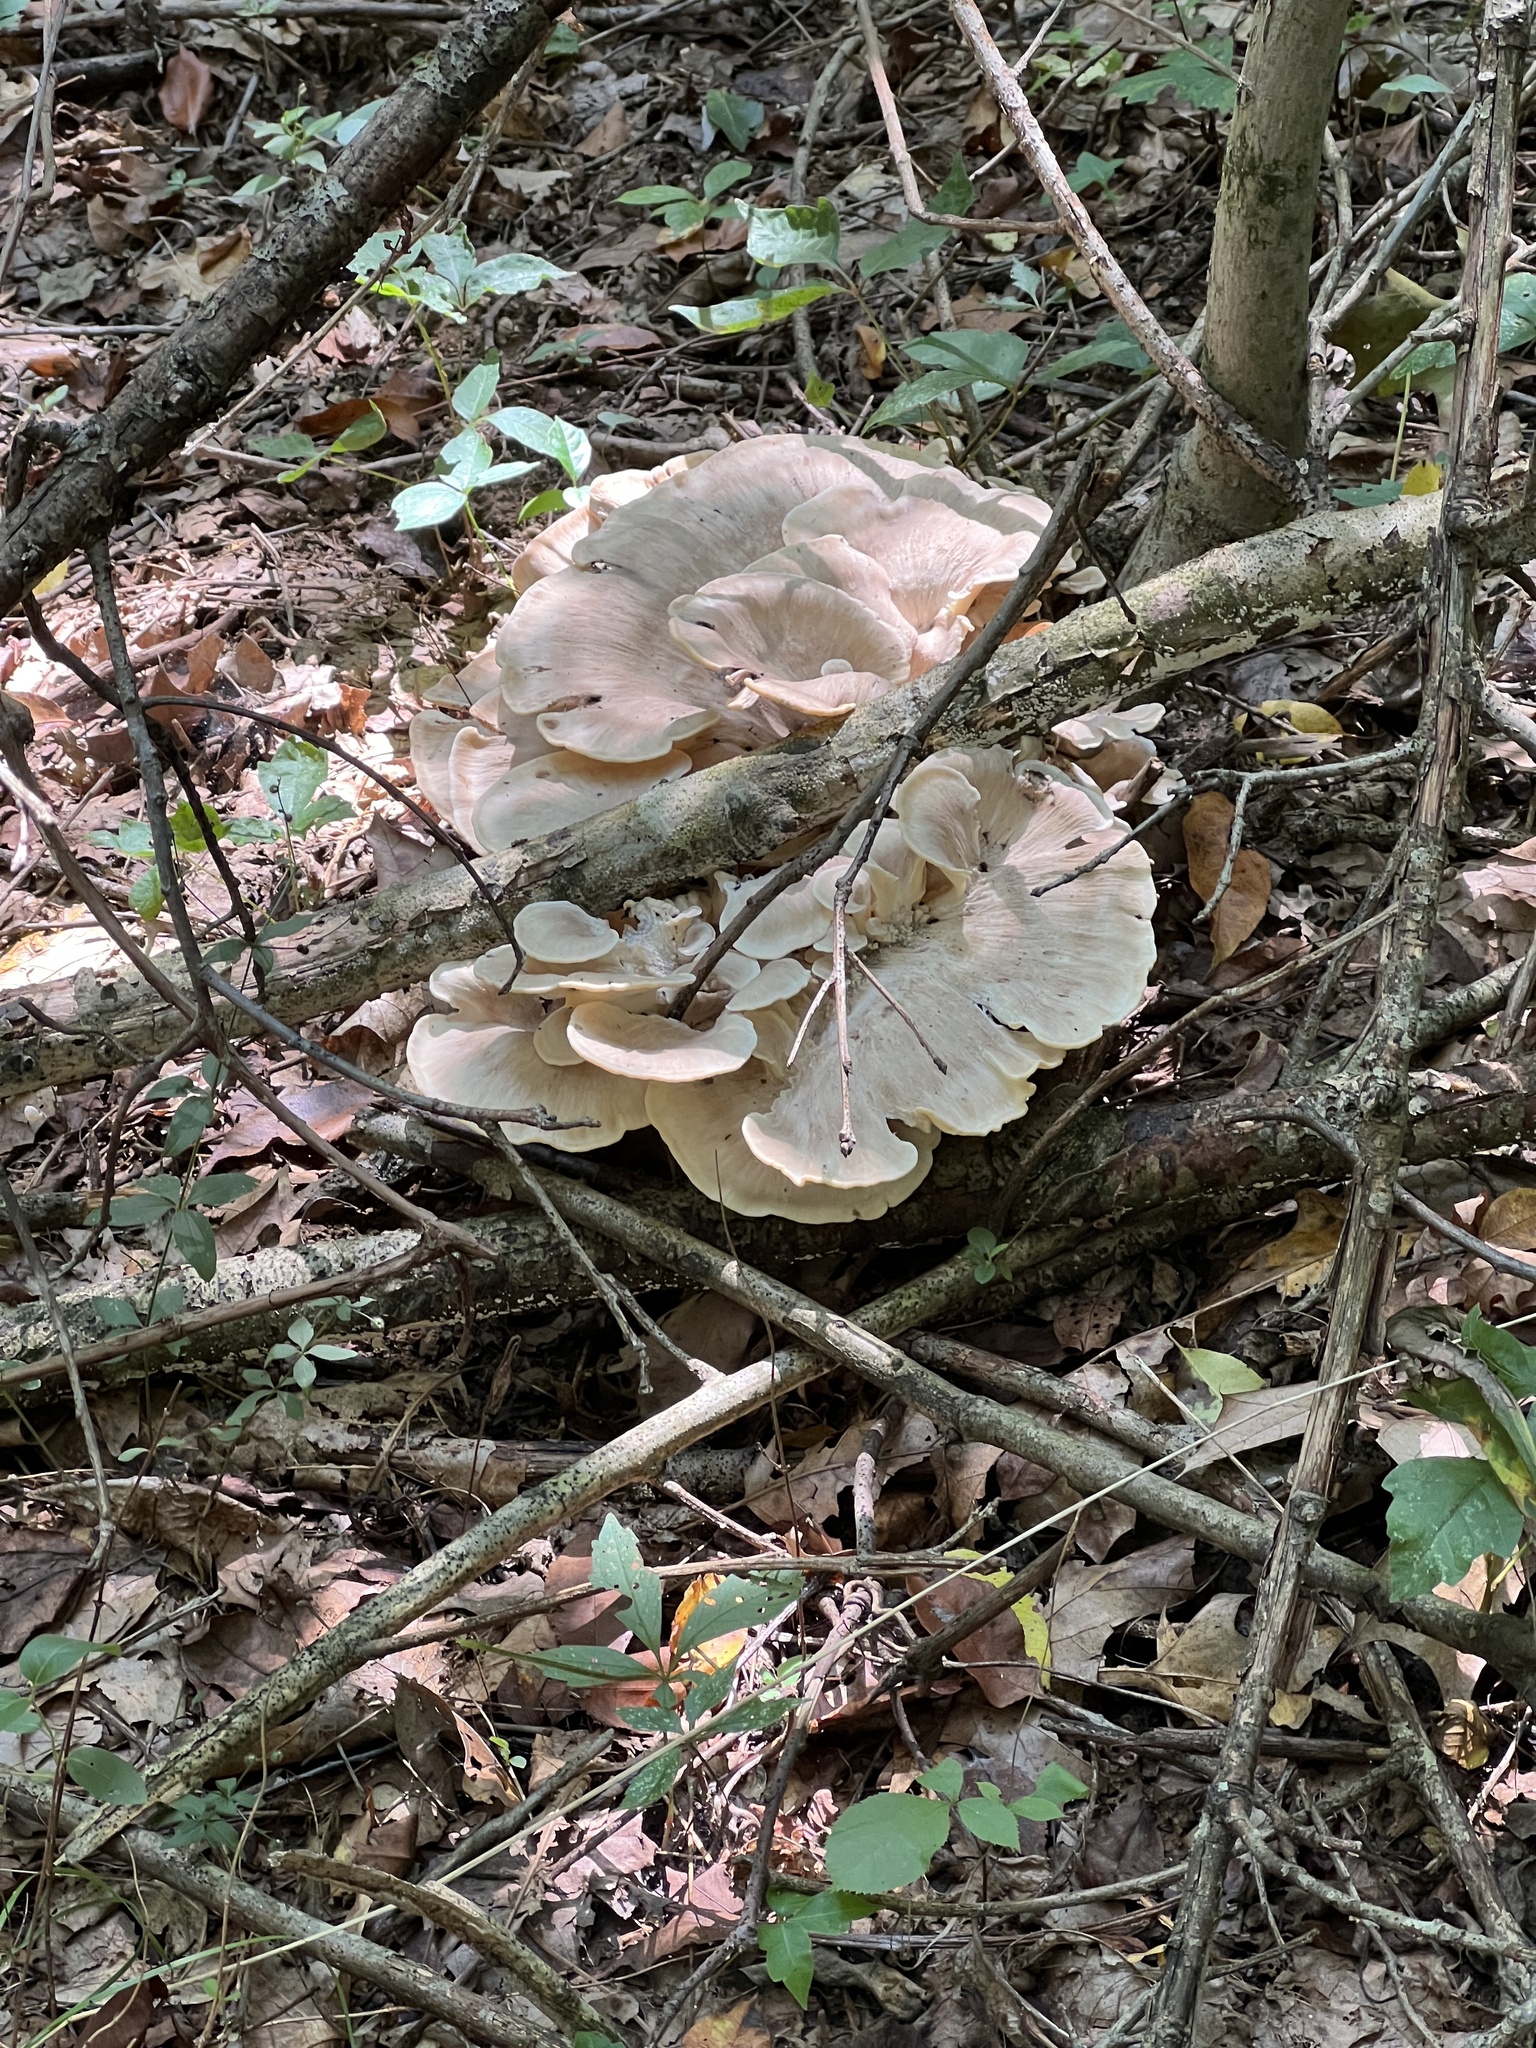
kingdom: Fungi
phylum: Basidiomycota
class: Agaricomycetes
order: Polyporales
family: Meripilaceae
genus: Meripilus
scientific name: Meripilus sumstinei
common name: Black-staining polypore
